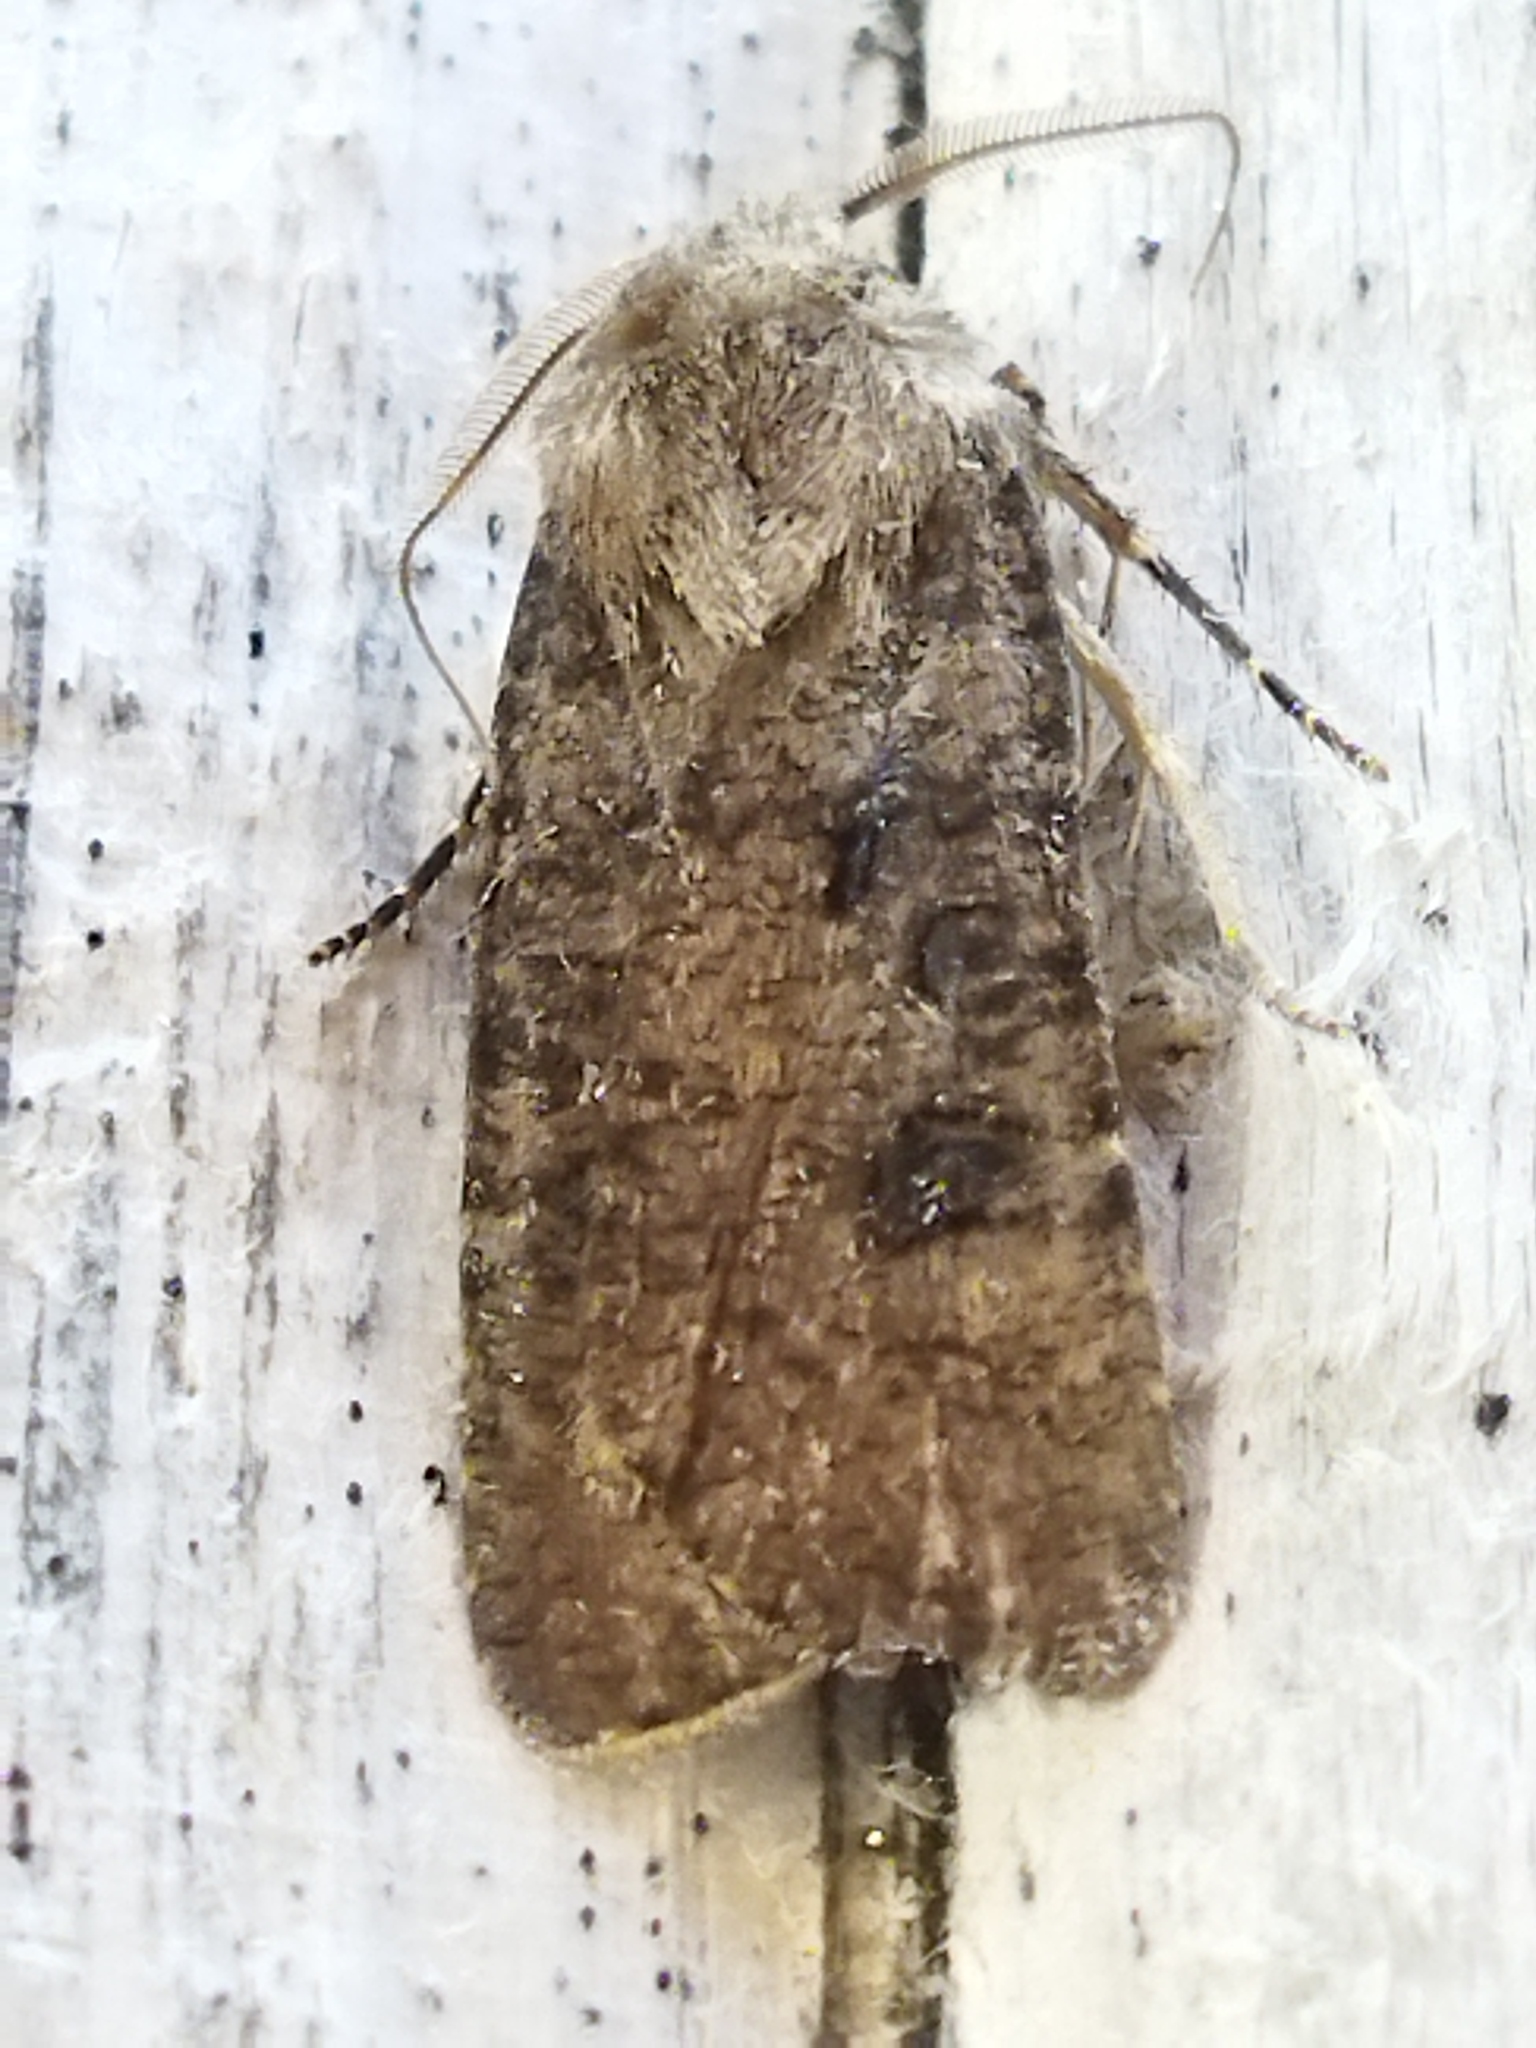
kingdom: Animalia
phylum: Arthropoda
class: Insecta
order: Lepidoptera
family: Noctuidae
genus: Agrotis
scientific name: Agrotis segetum
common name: Turnip moth
